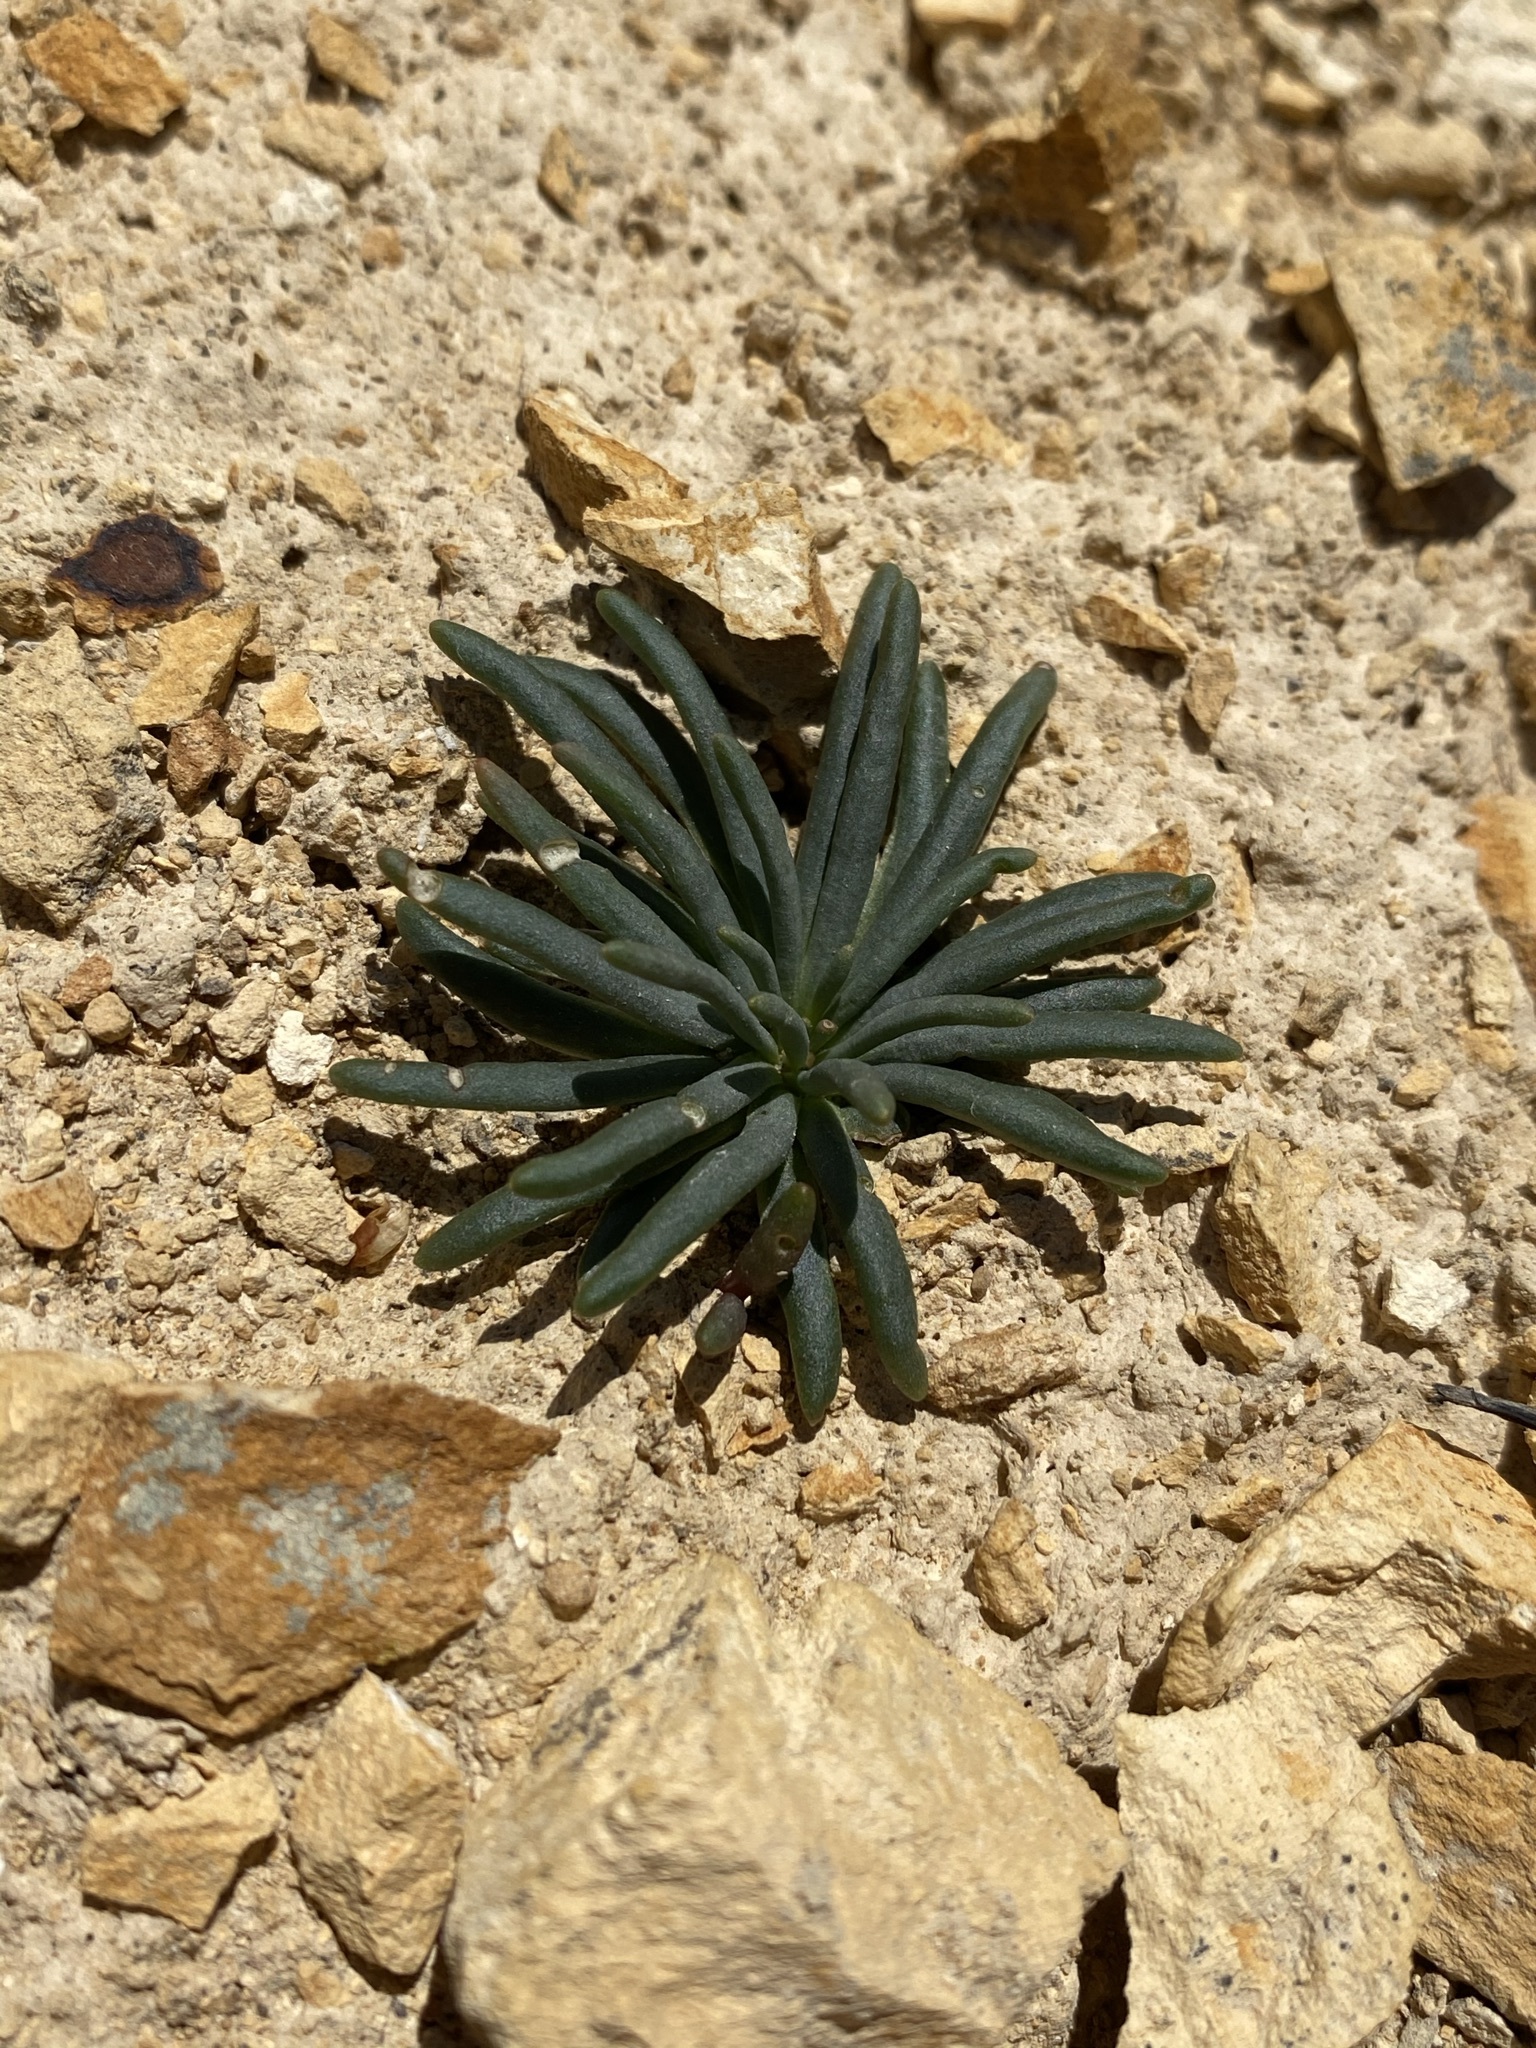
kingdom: Plantae
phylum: Tracheophyta
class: Magnoliopsida
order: Caryophyllales
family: Montiaceae
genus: Lewisia
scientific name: Lewisia rediviva
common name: Bitter-root
